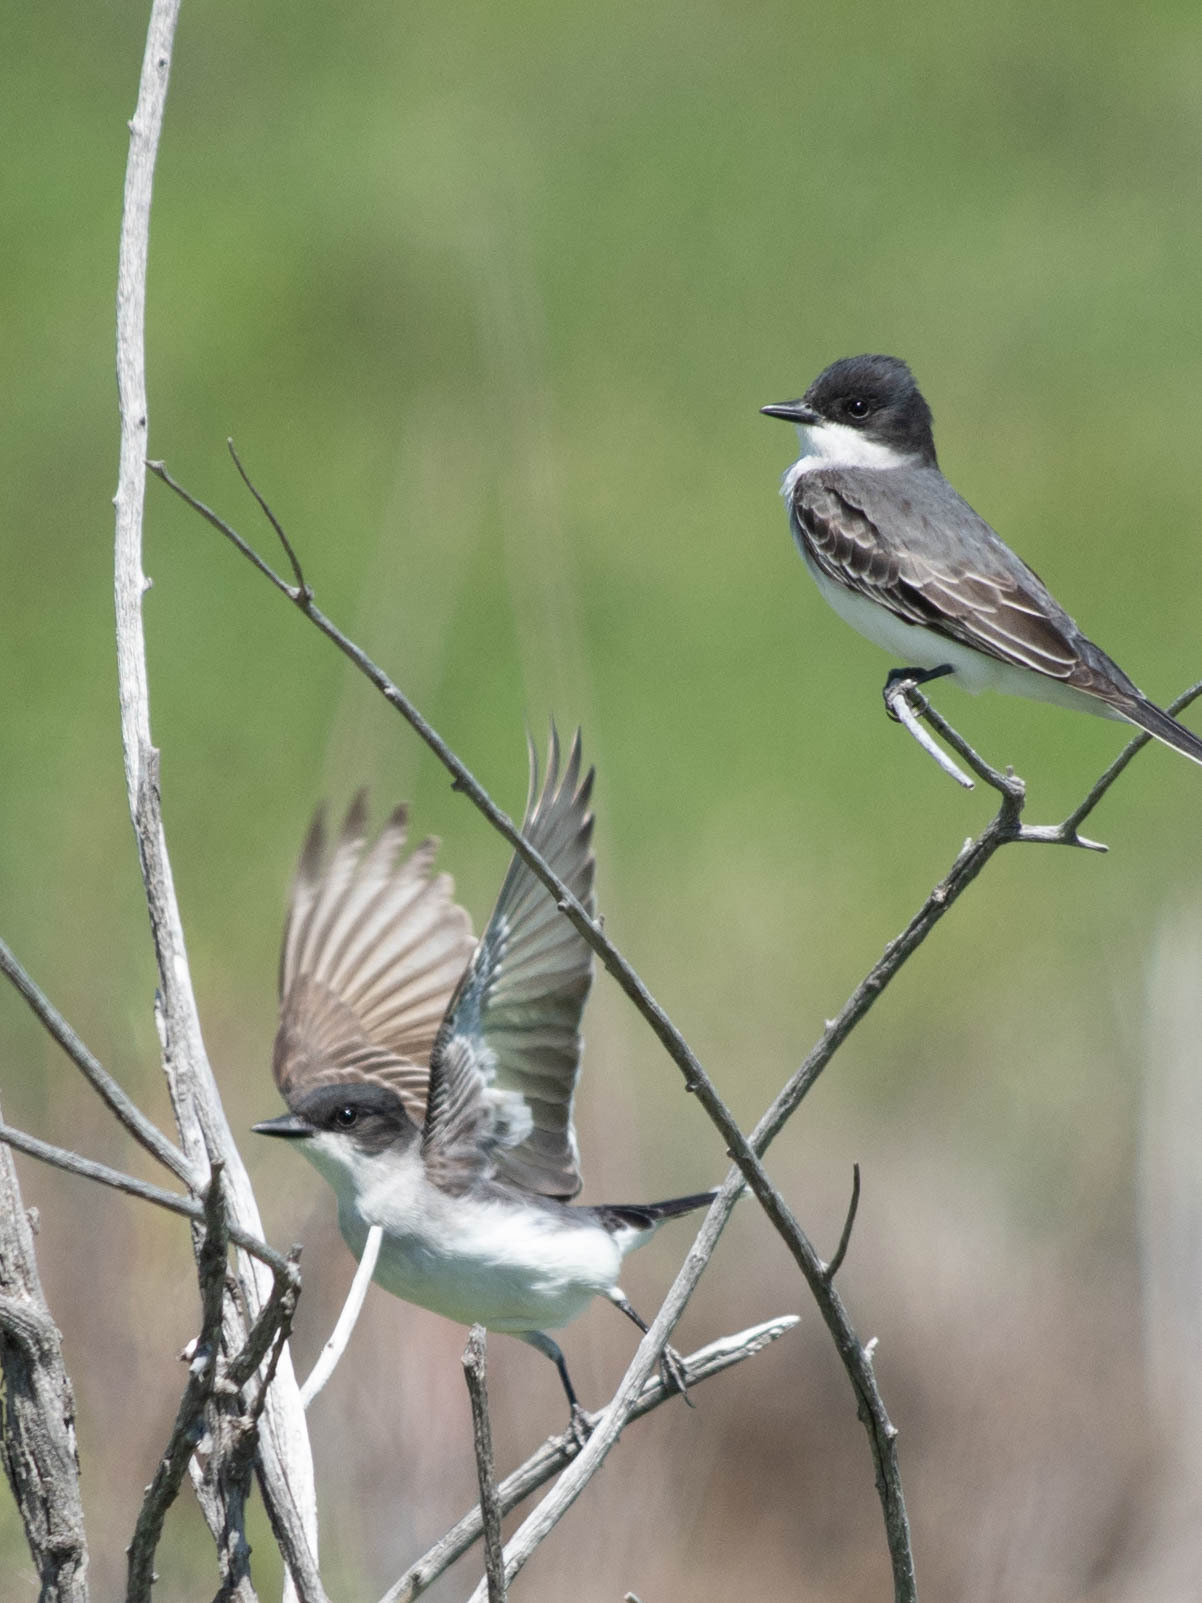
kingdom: Animalia
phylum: Chordata
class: Aves
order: Passeriformes
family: Tyrannidae
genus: Tyrannus
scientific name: Tyrannus tyrannus
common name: Eastern kingbird
